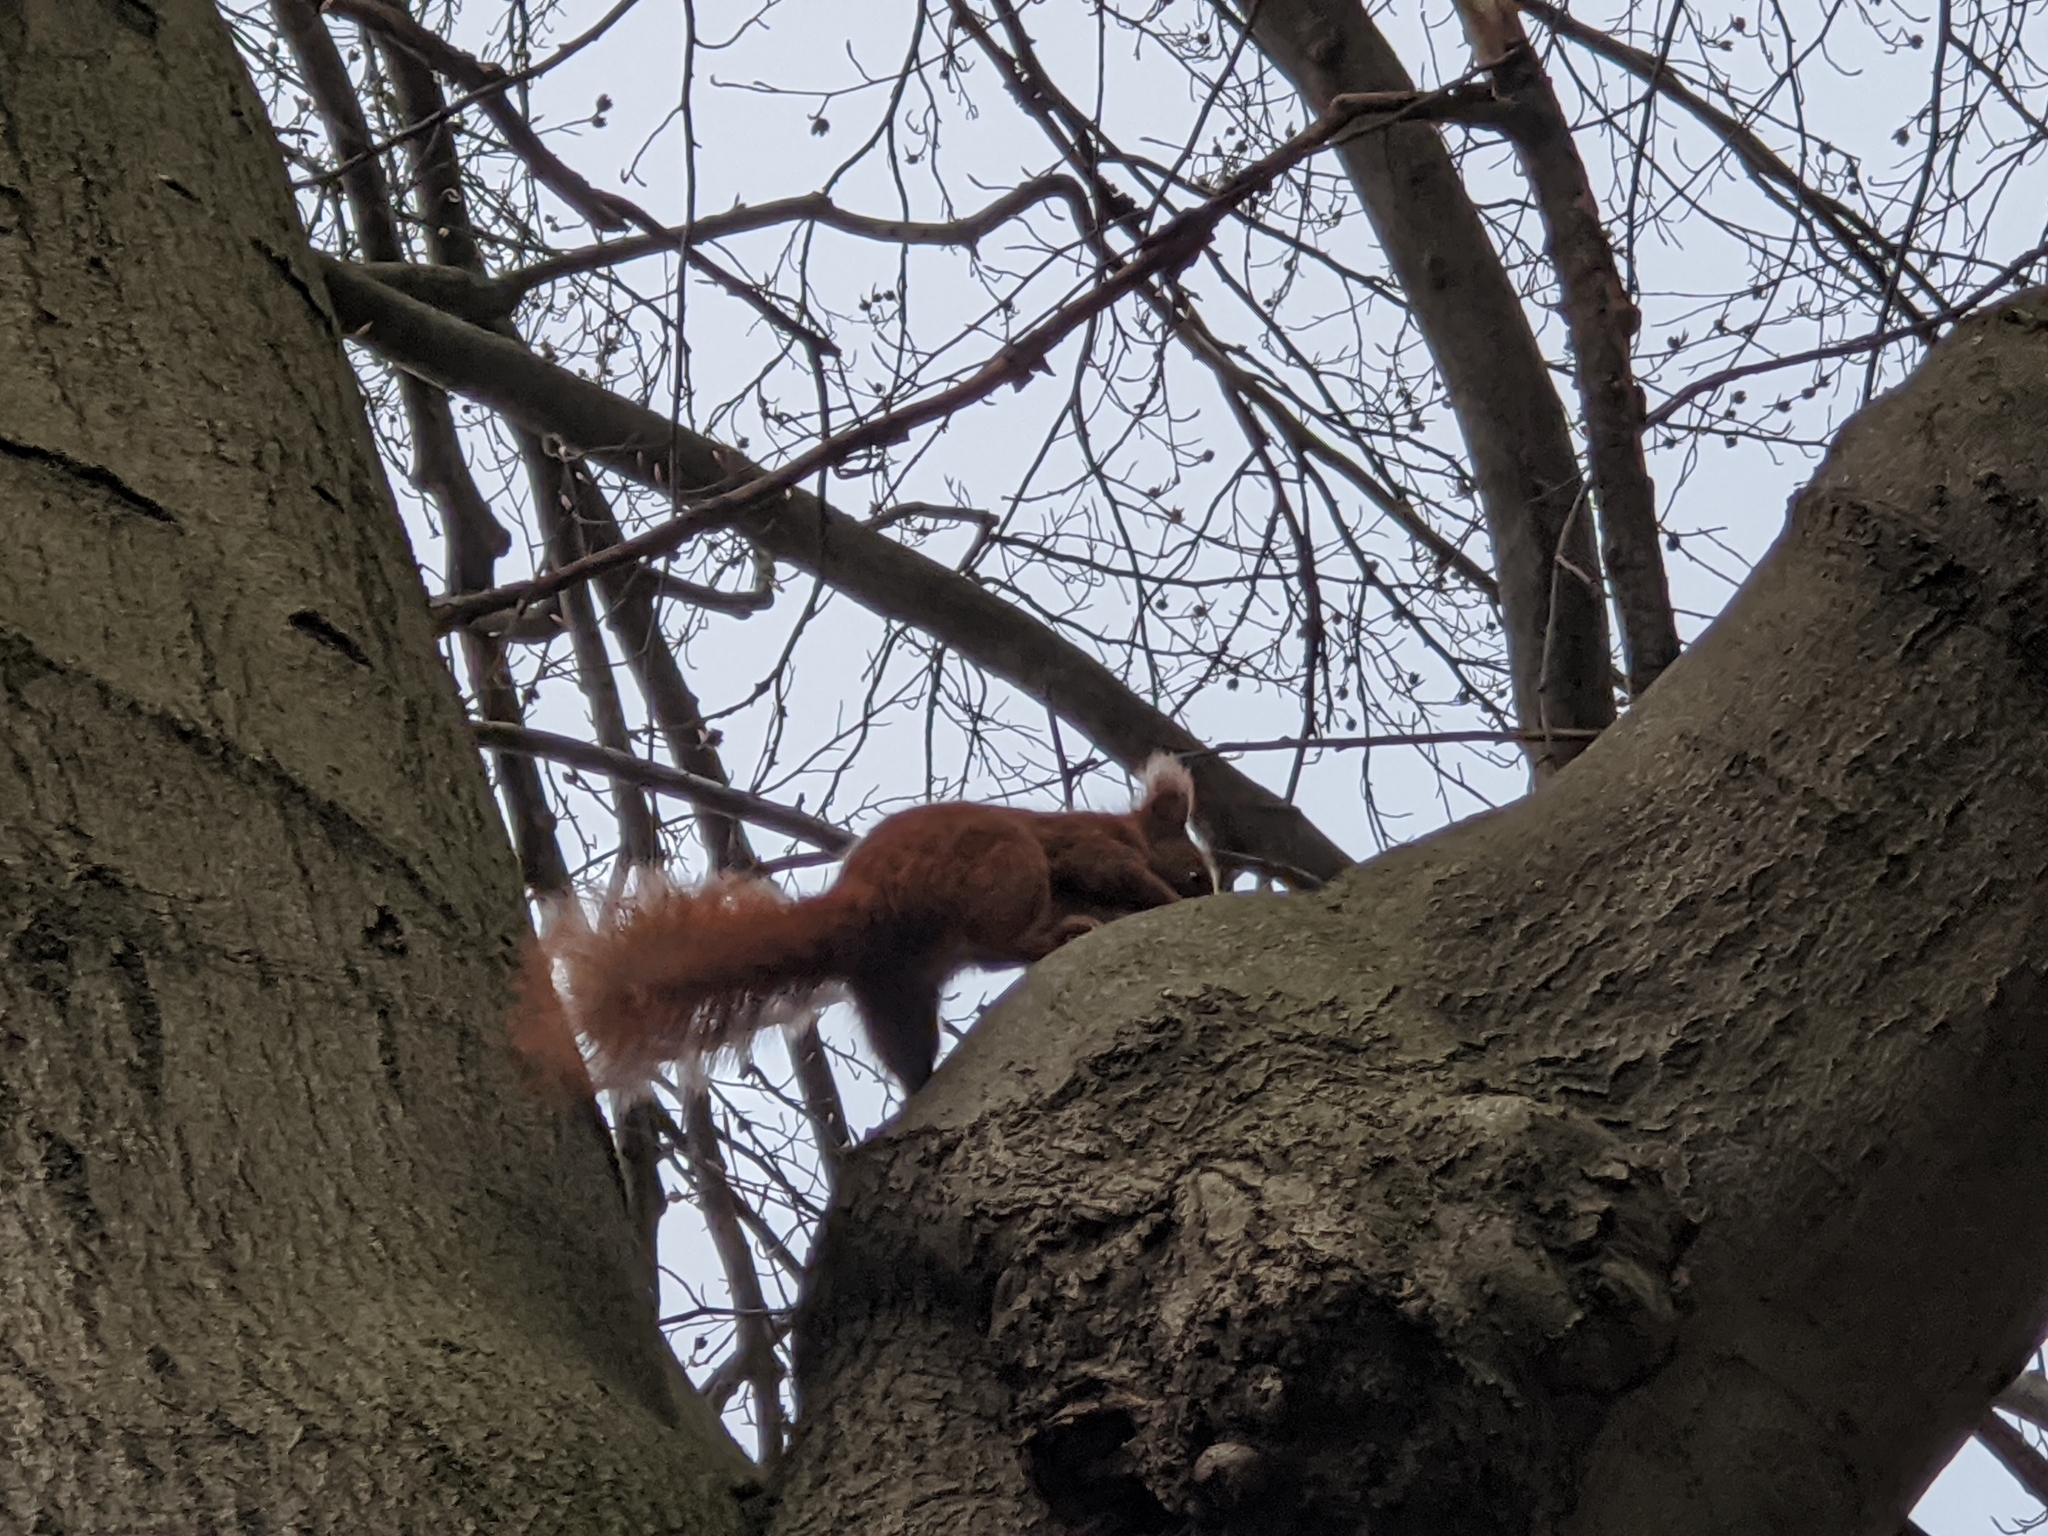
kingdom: Animalia
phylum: Chordata
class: Mammalia
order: Rodentia
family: Sciuridae
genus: Sciurus
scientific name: Sciurus vulgaris
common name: Eurasian red squirrel
